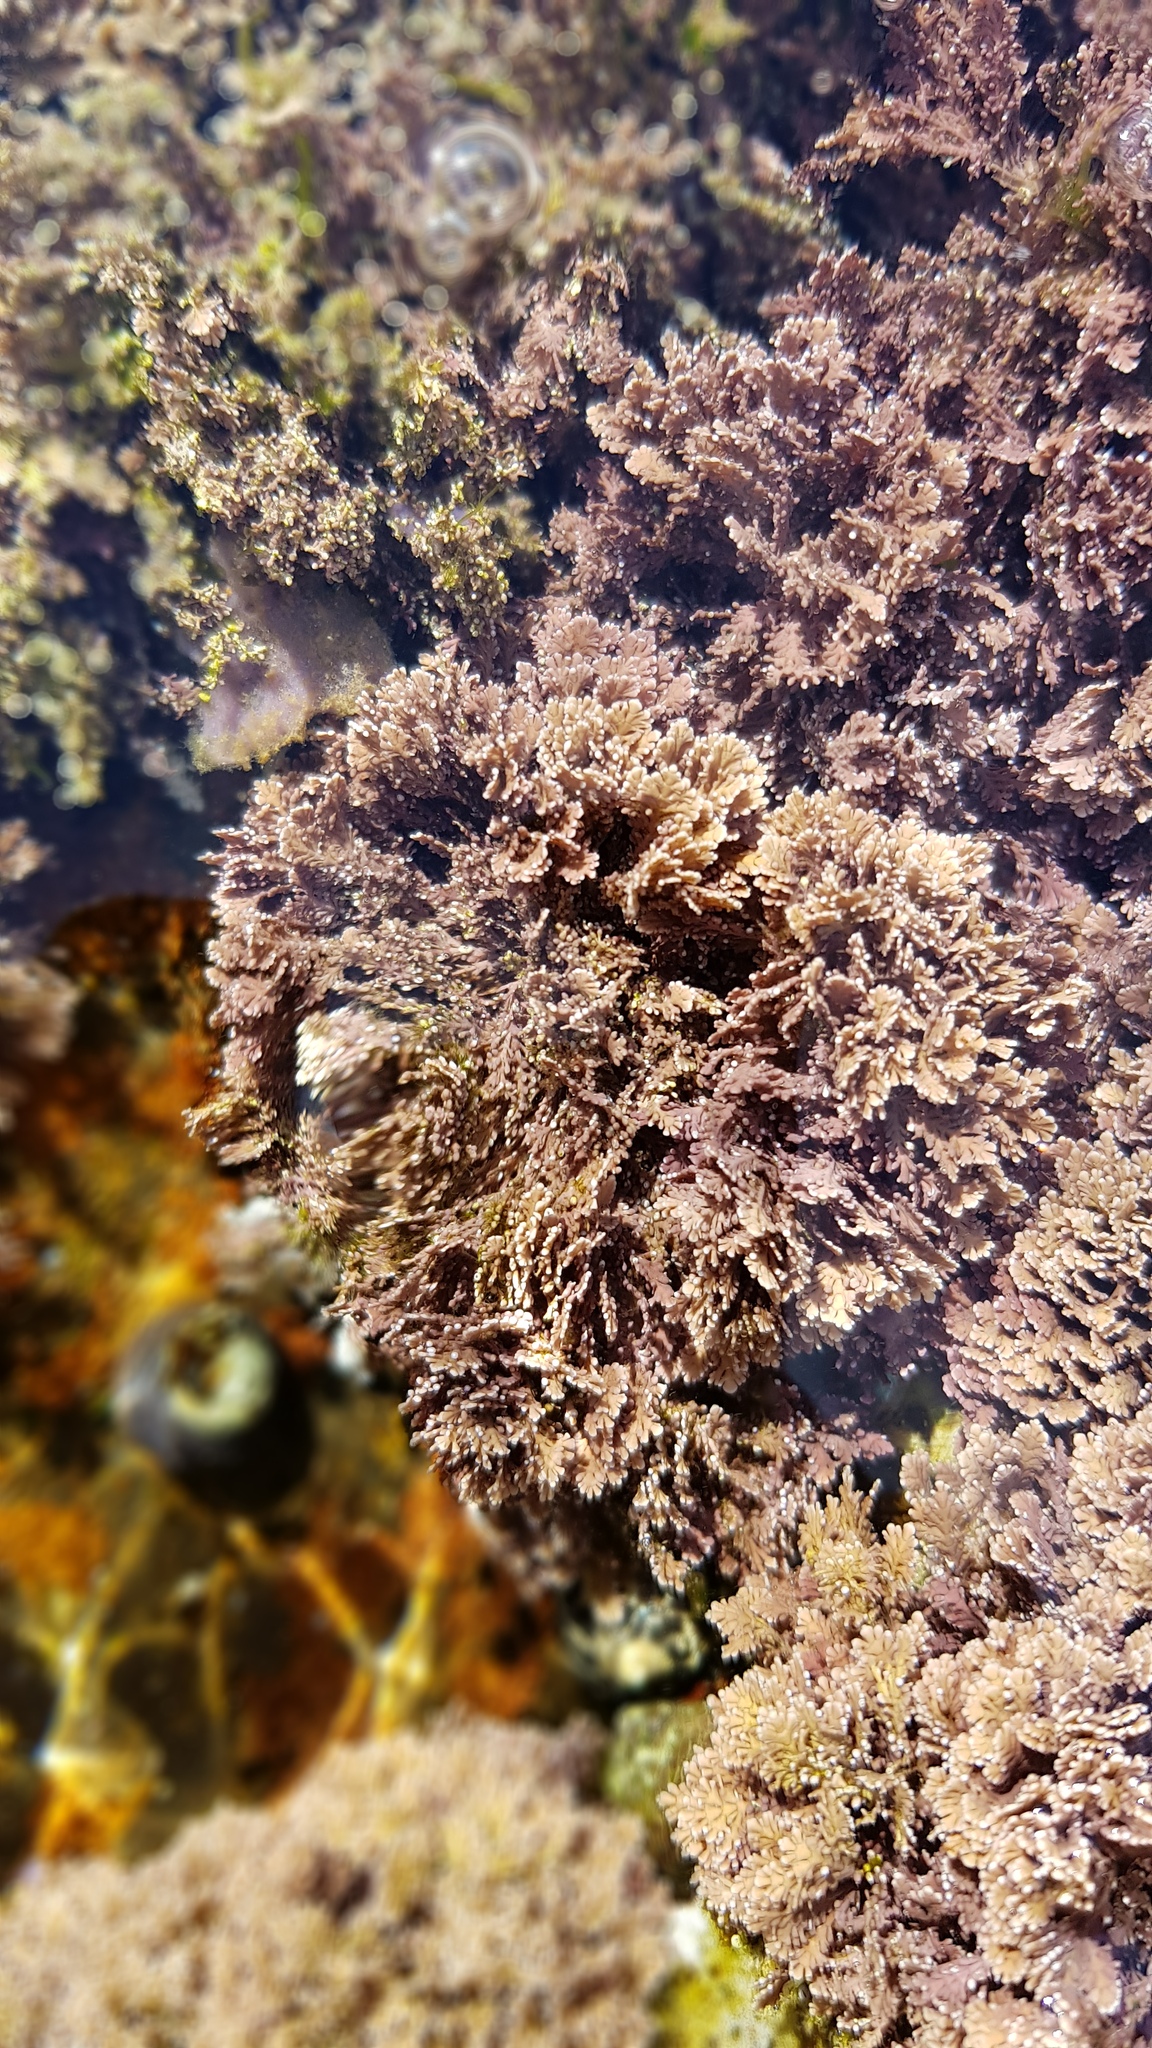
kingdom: Plantae
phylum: Rhodophyta
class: Florideophyceae
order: Corallinales
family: Corallinaceae
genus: Corallina
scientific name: Corallina officinalis
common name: Coral weed
